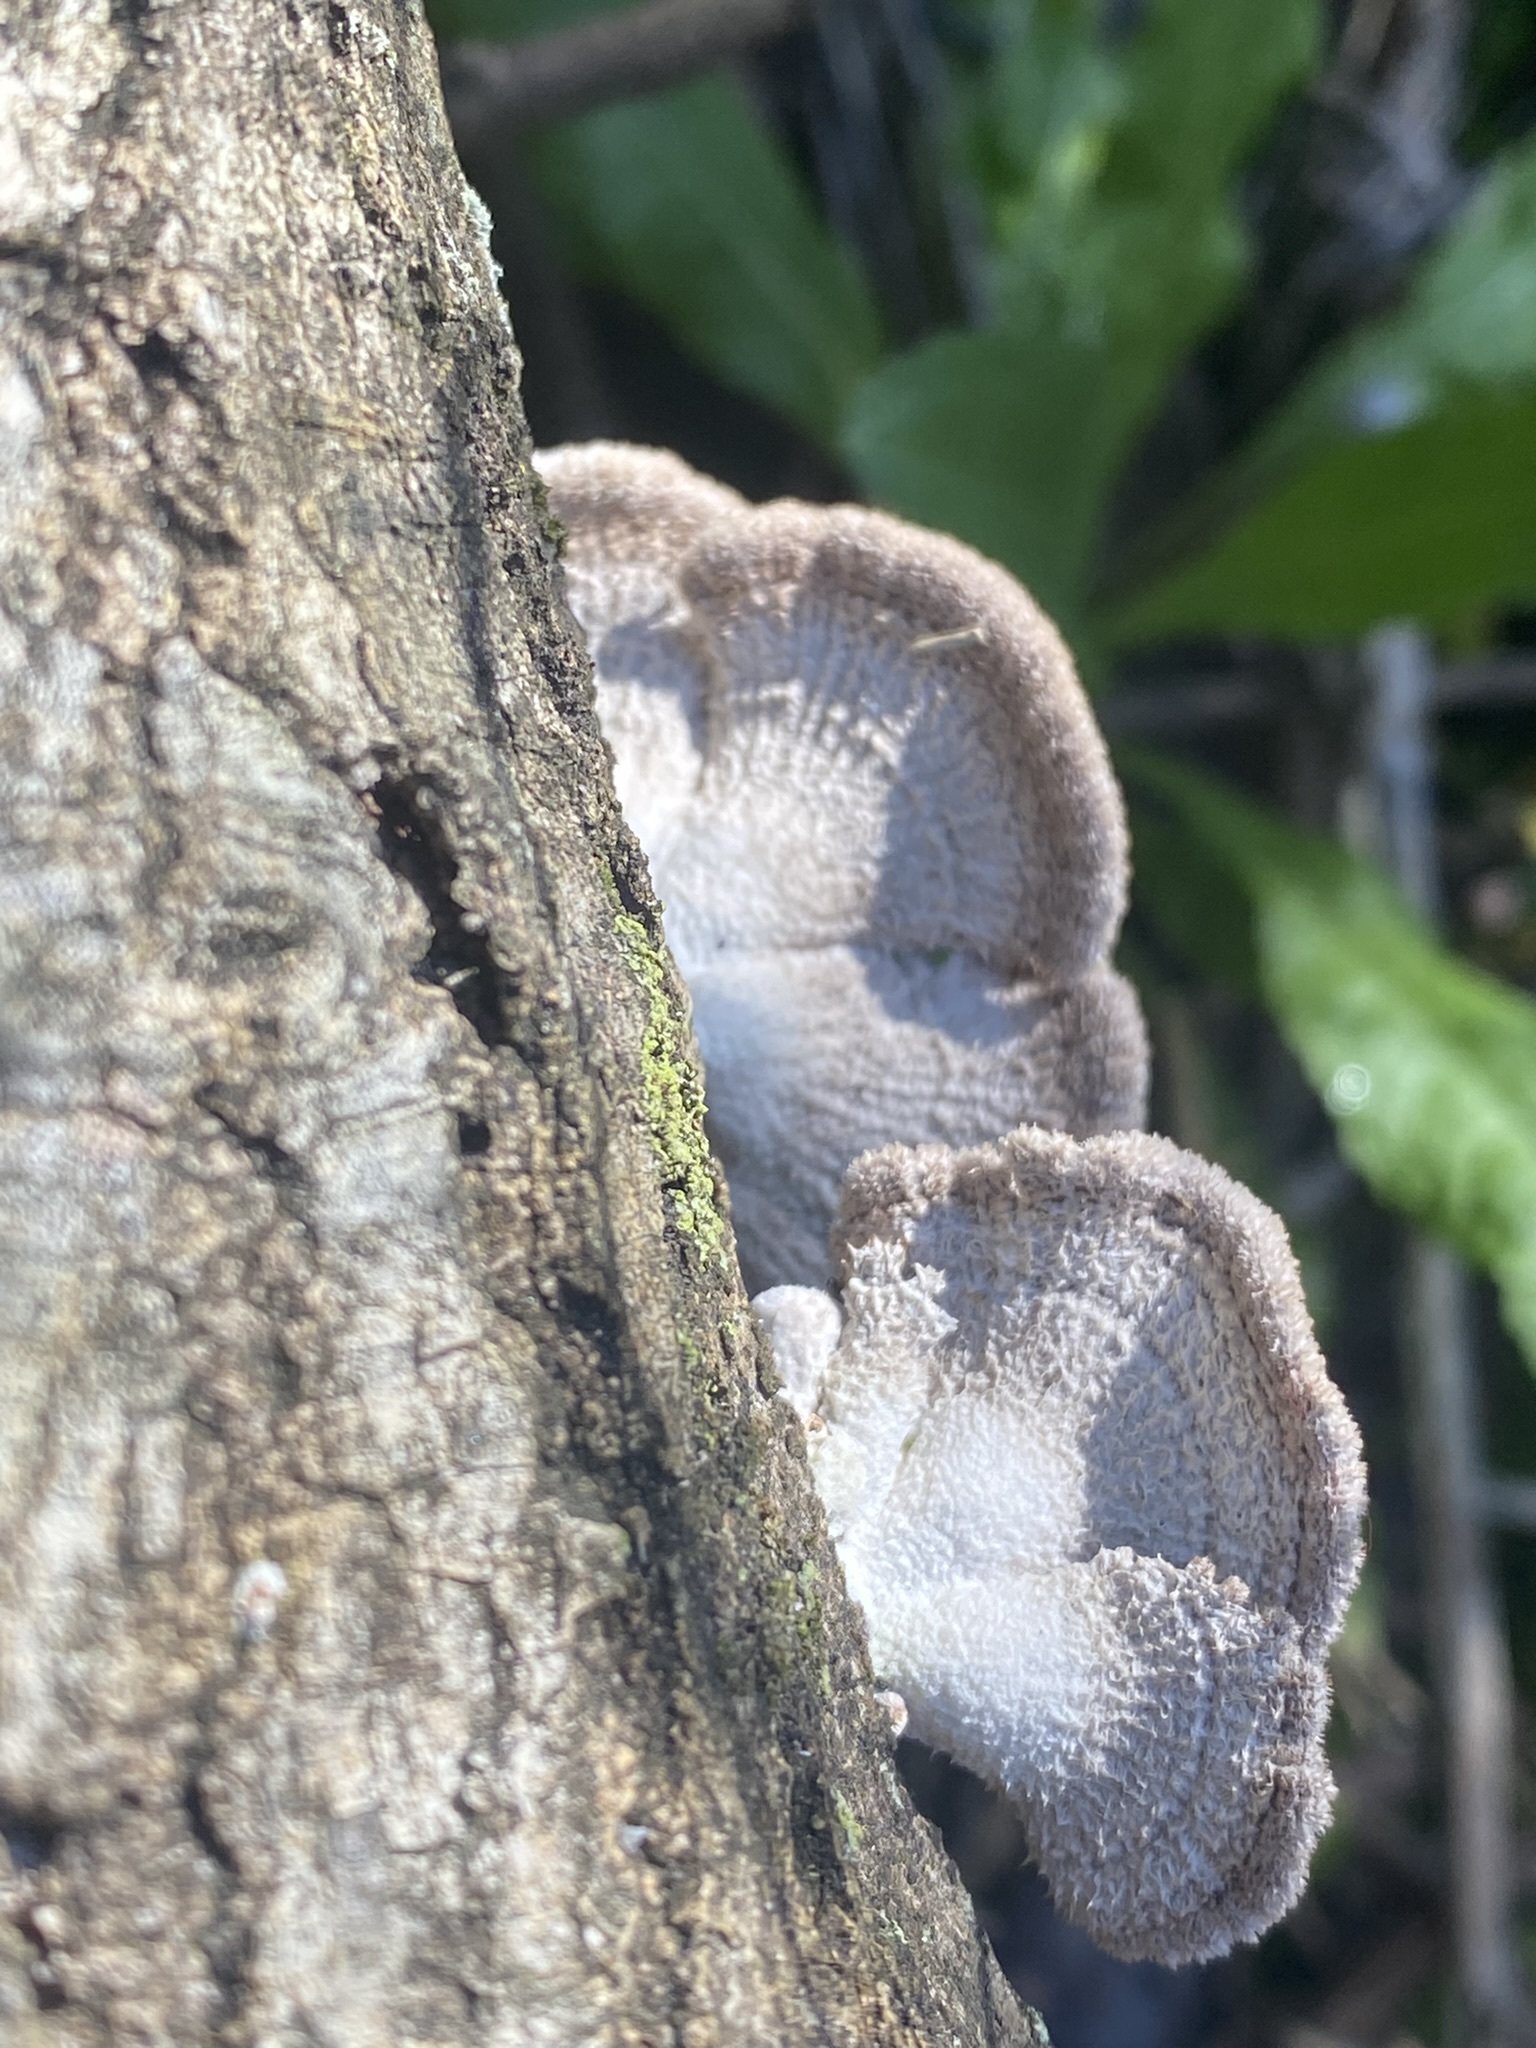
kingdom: Fungi
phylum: Basidiomycota
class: Agaricomycetes
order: Agaricales
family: Schizophyllaceae
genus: Schizophyllum
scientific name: Schizophyllum commune
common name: Common porecrust
